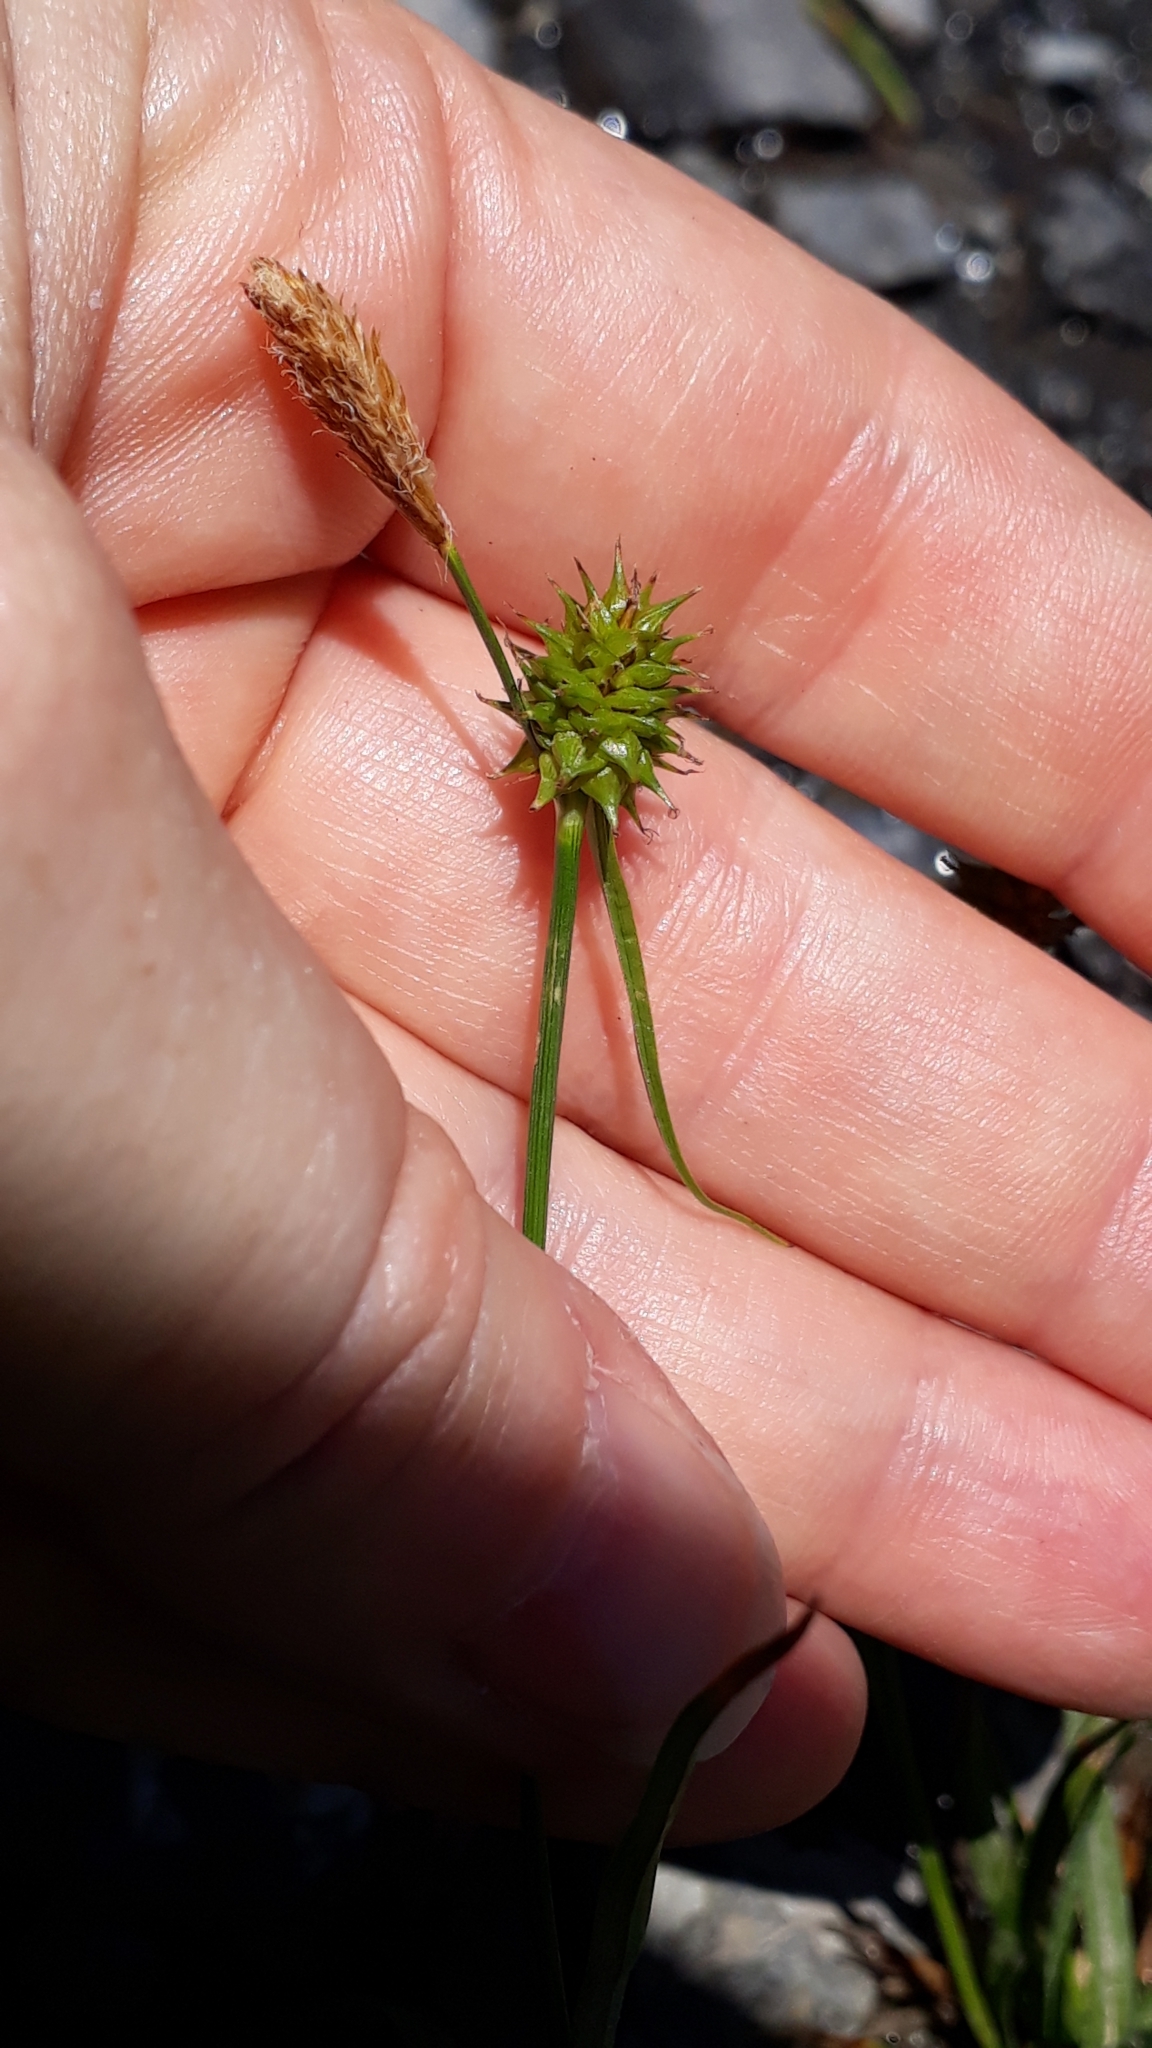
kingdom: Plantae
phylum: Tracheophyta
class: Liliopsida
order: Poales
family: Cyperaceae
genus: Carex
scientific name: Carex flava
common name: Large yellow-sedge
